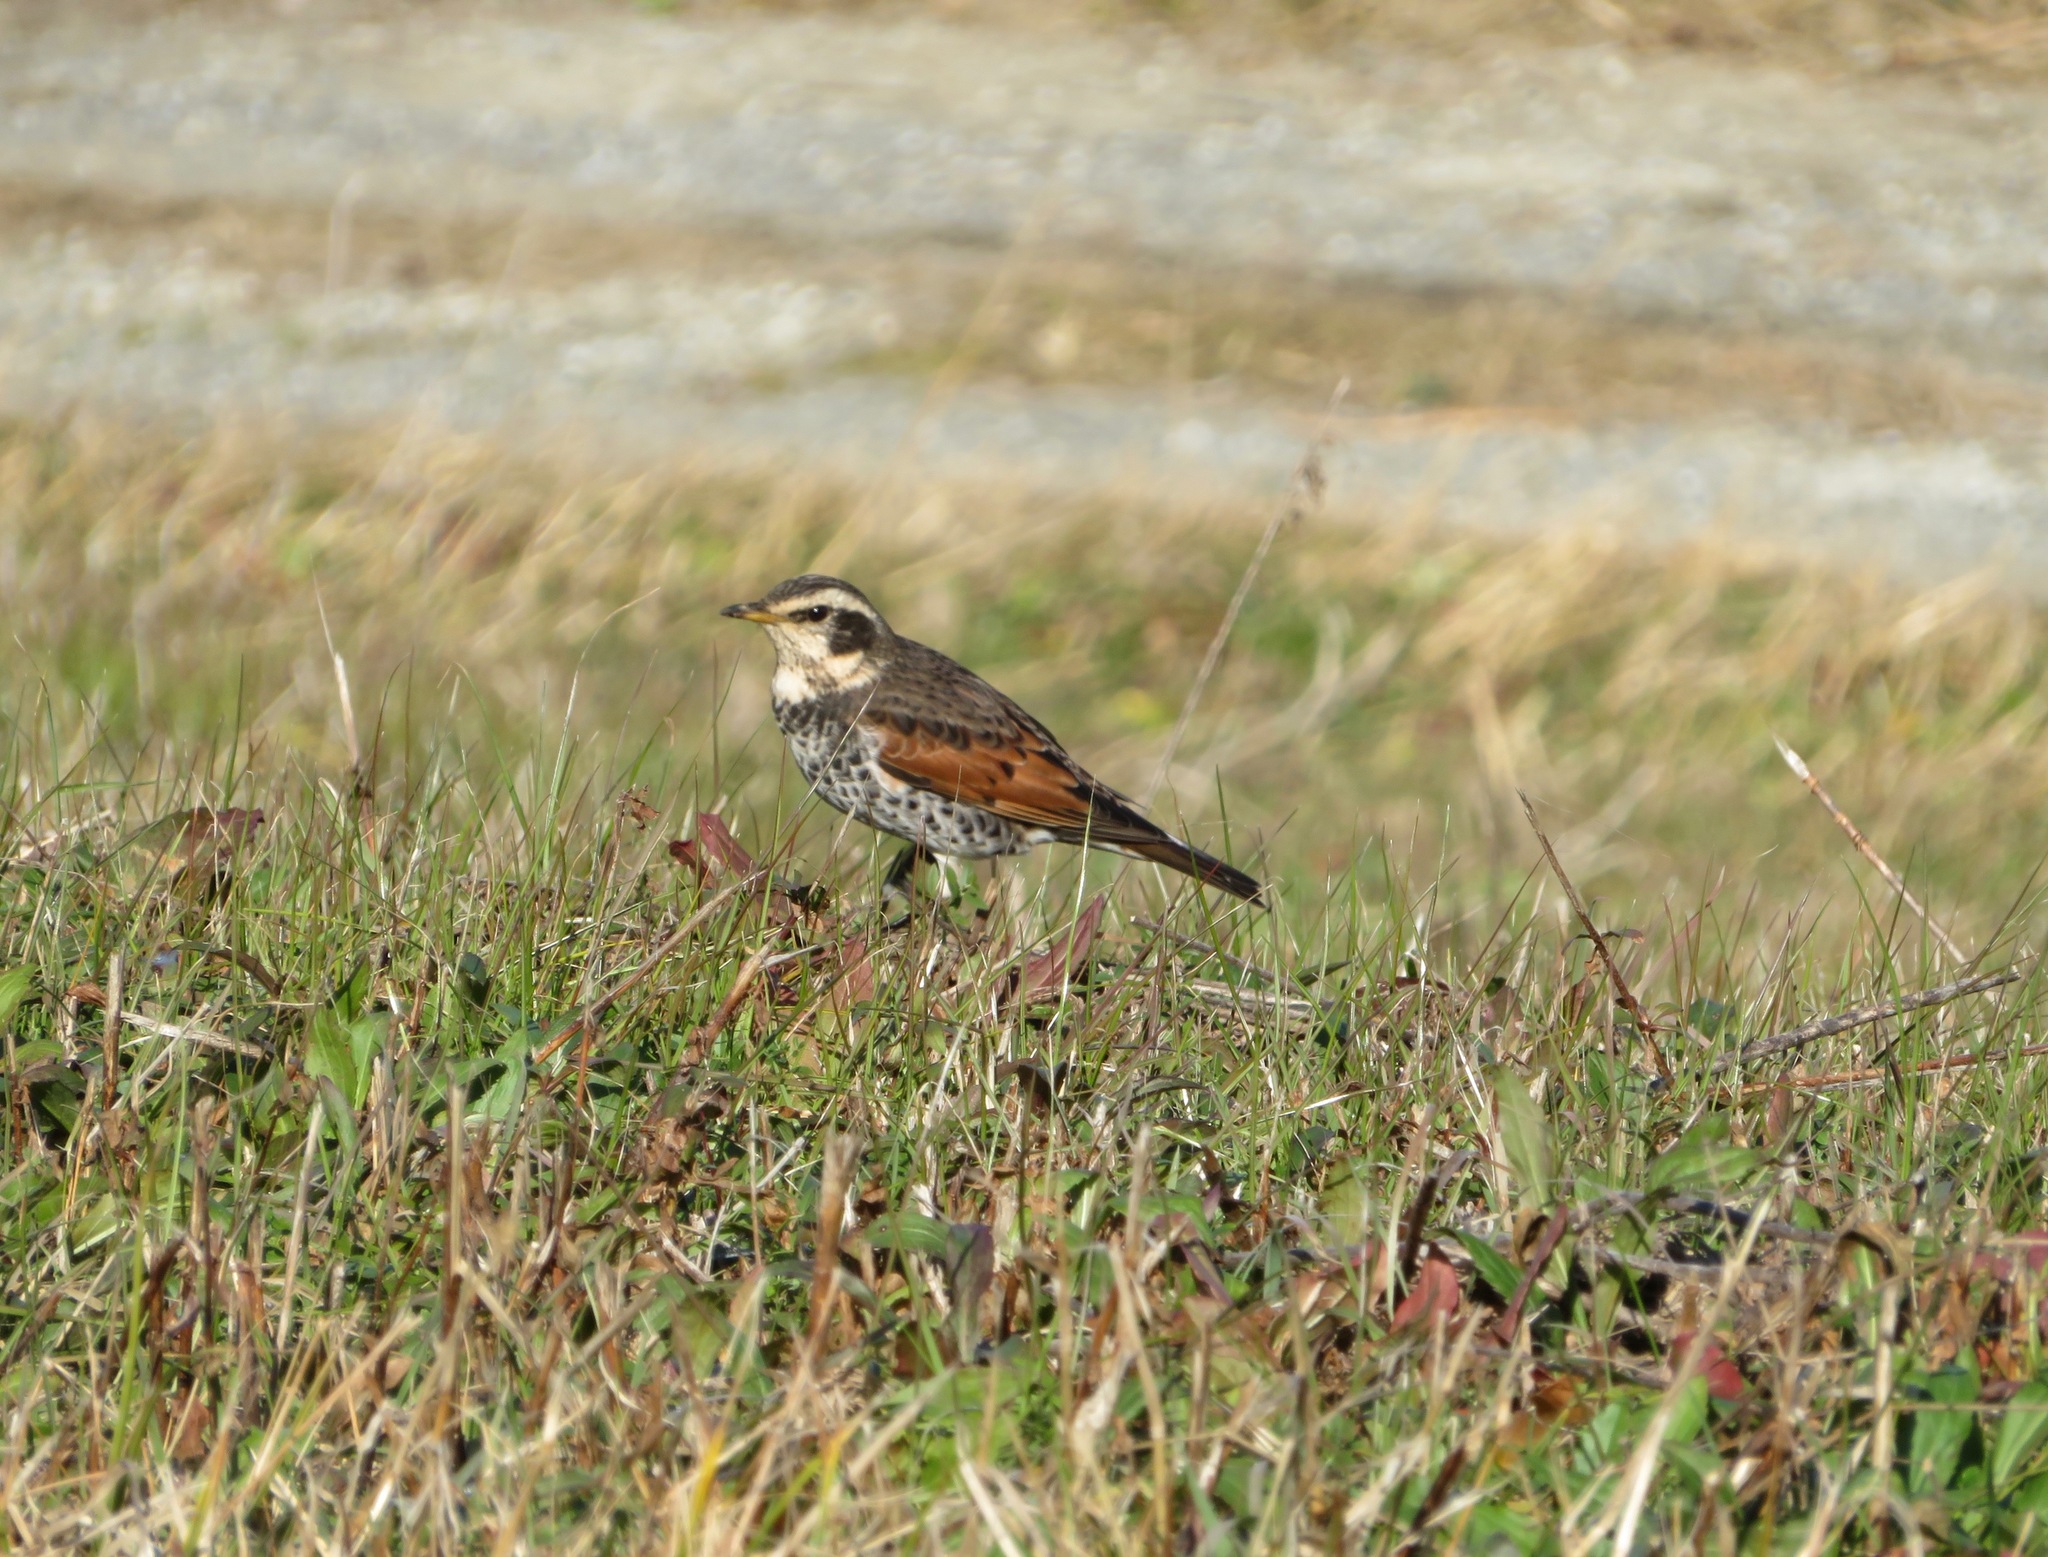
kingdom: Animalia
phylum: Chordata
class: Aves
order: Passeriformes
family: Turdidae
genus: Turdus
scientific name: Turdus eunomus
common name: Dusky thrush
